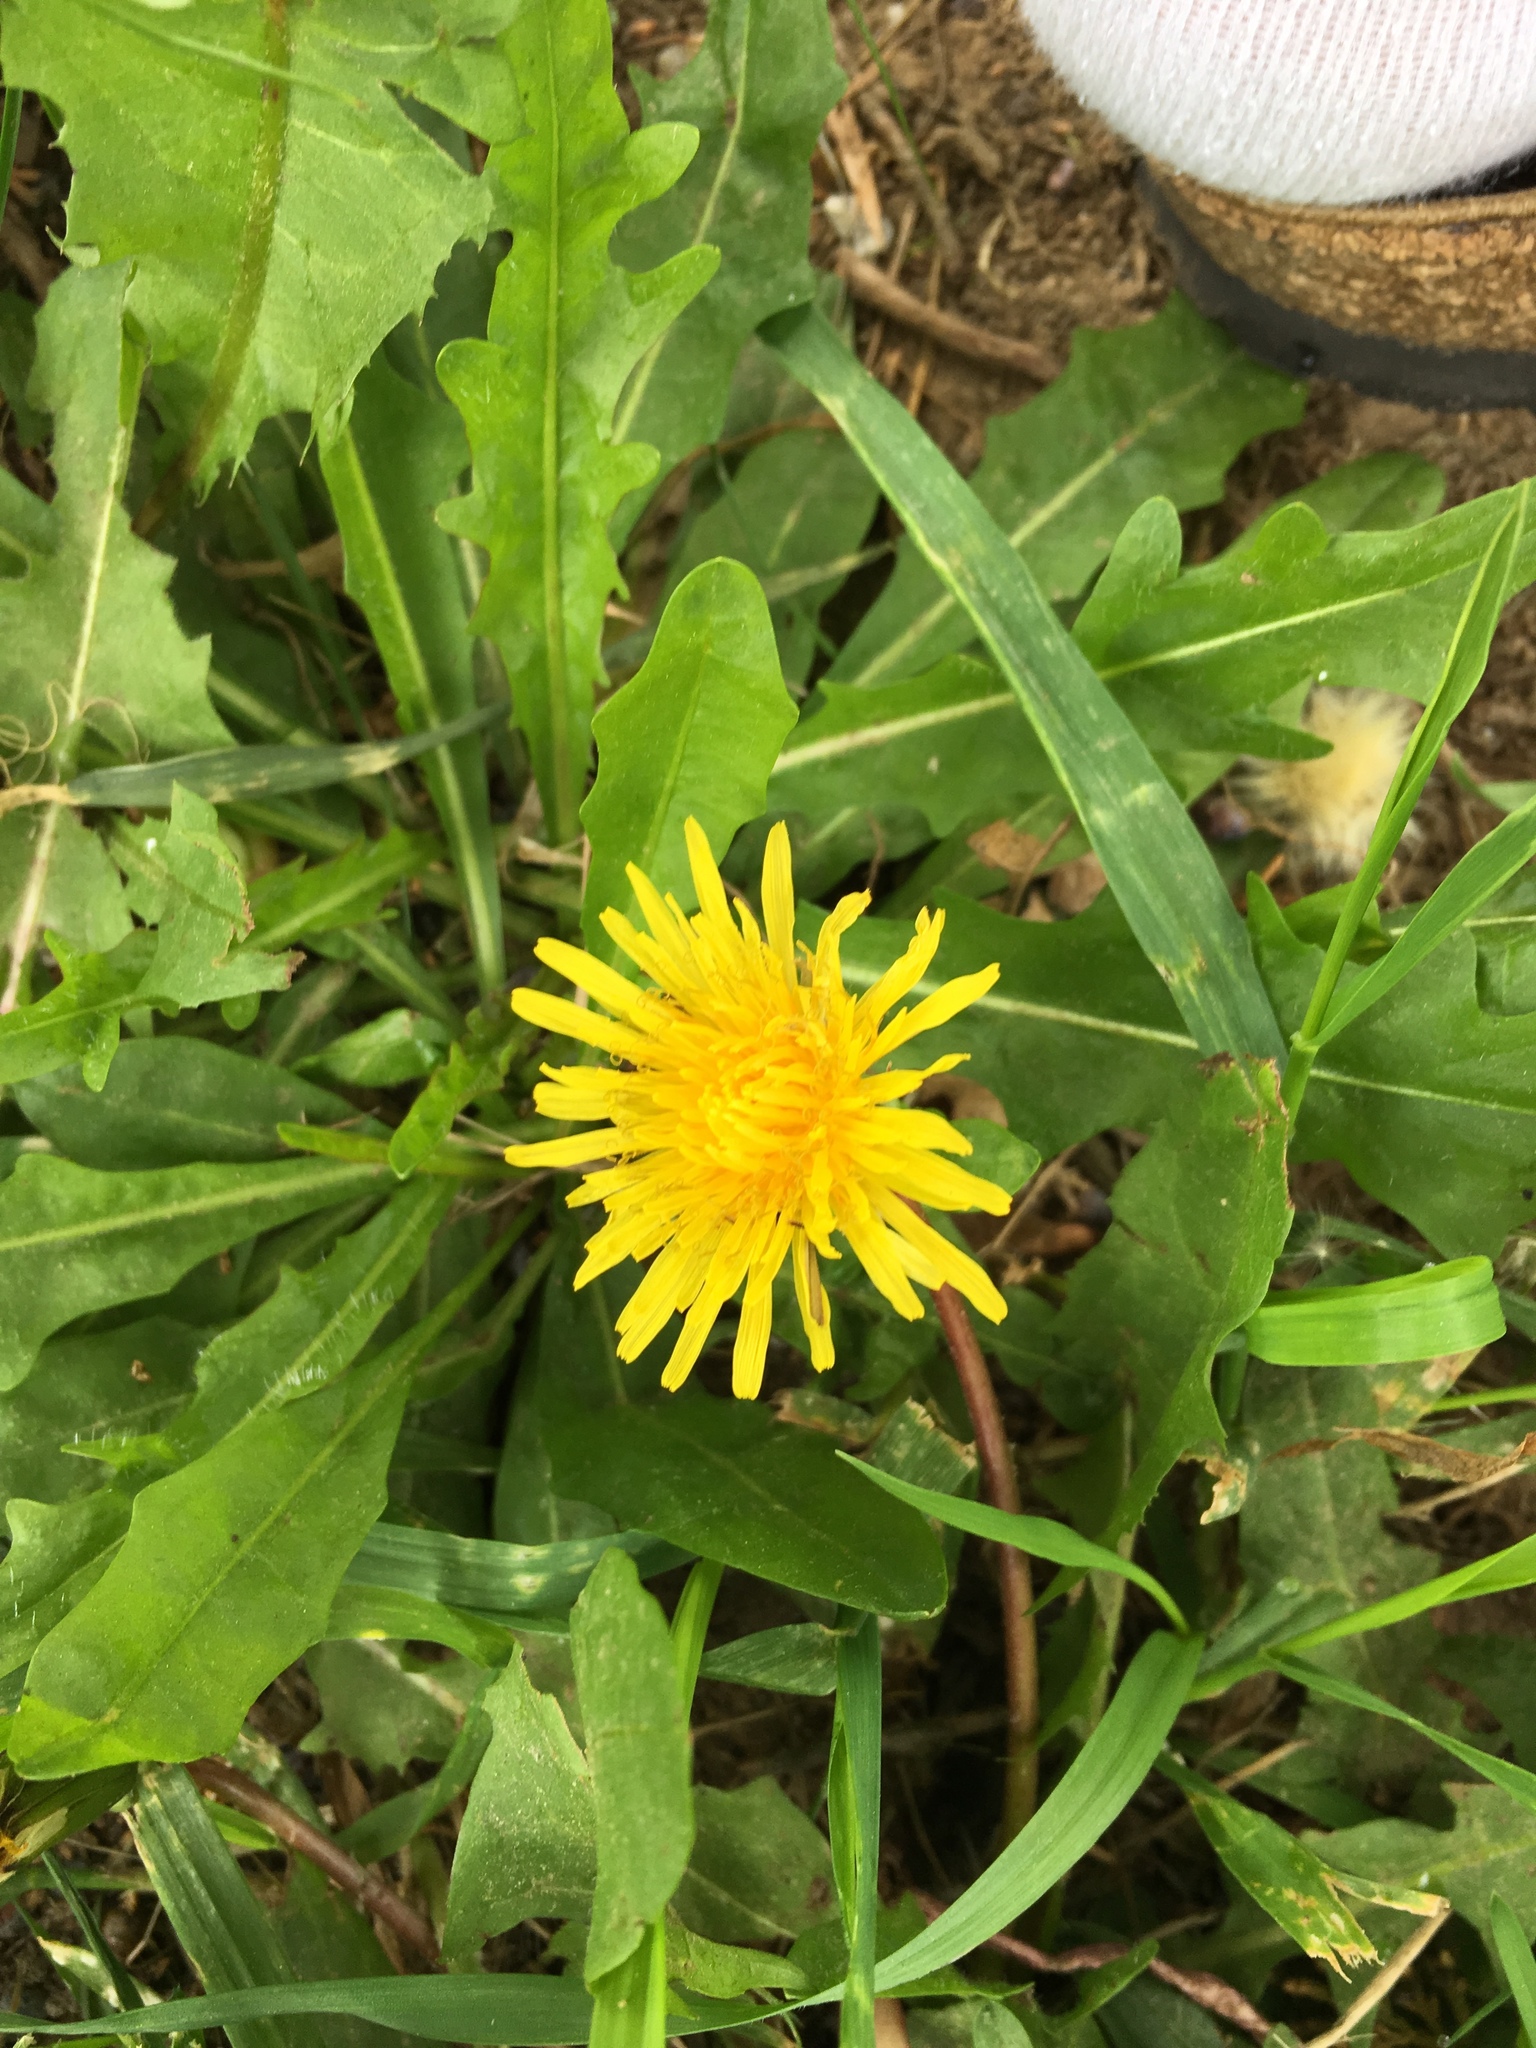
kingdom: Plantae
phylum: Tracheophyta
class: Magnoliopsida
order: Asterales
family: Asteraceae
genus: Taraxacum
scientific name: Taraxacum officinale
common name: Common dandelion
